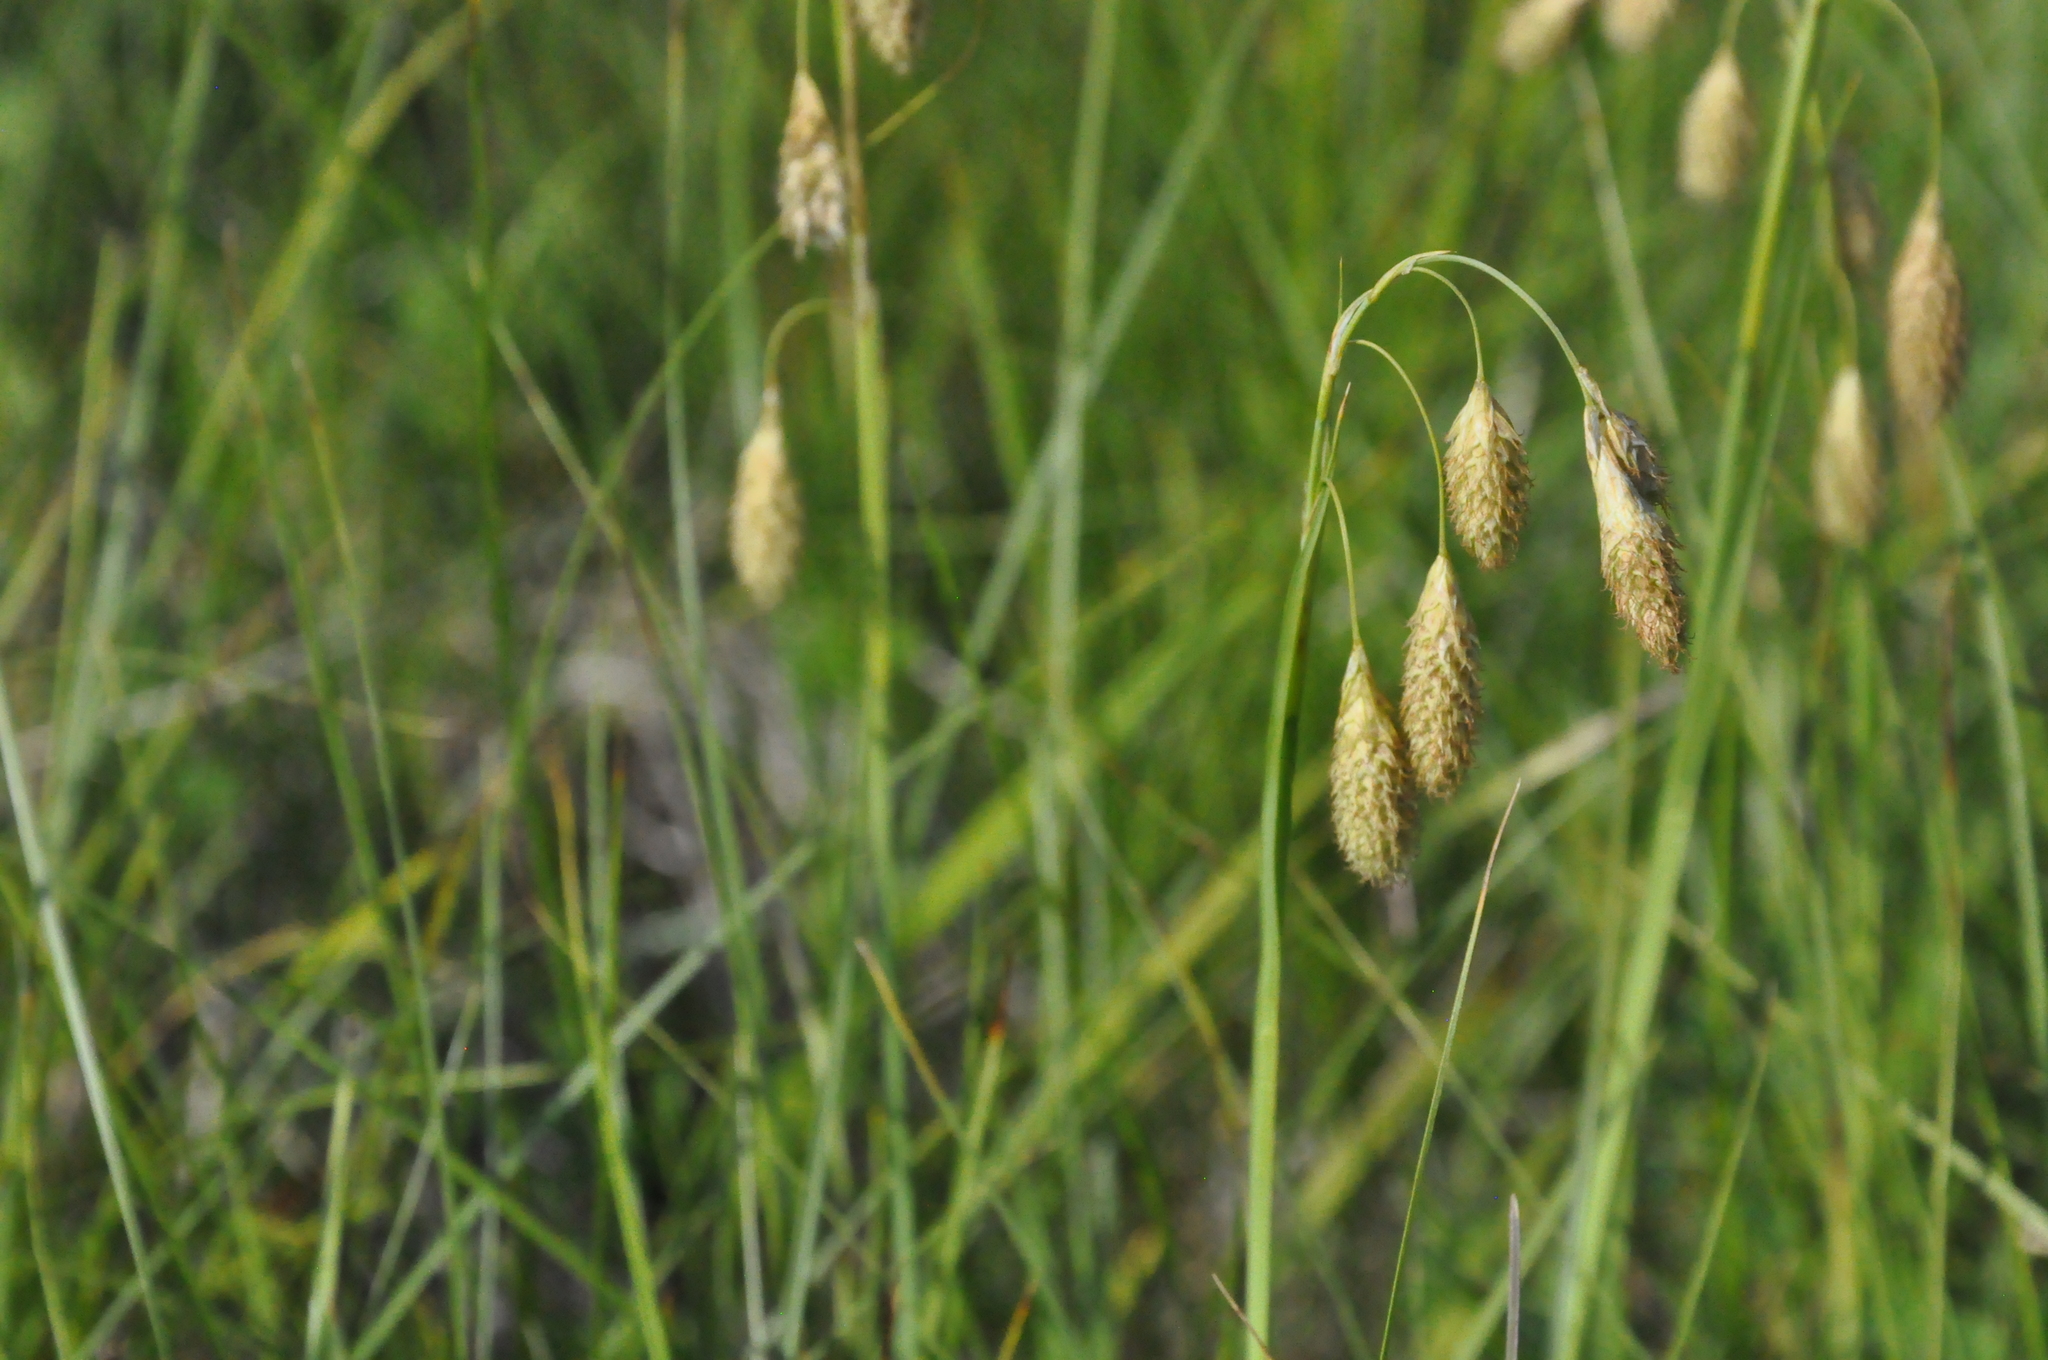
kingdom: Plantae
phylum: Tracheophyta
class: Liliopsida
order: Poales
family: Cyperaceae
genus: Carex
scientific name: Carex coriophora
